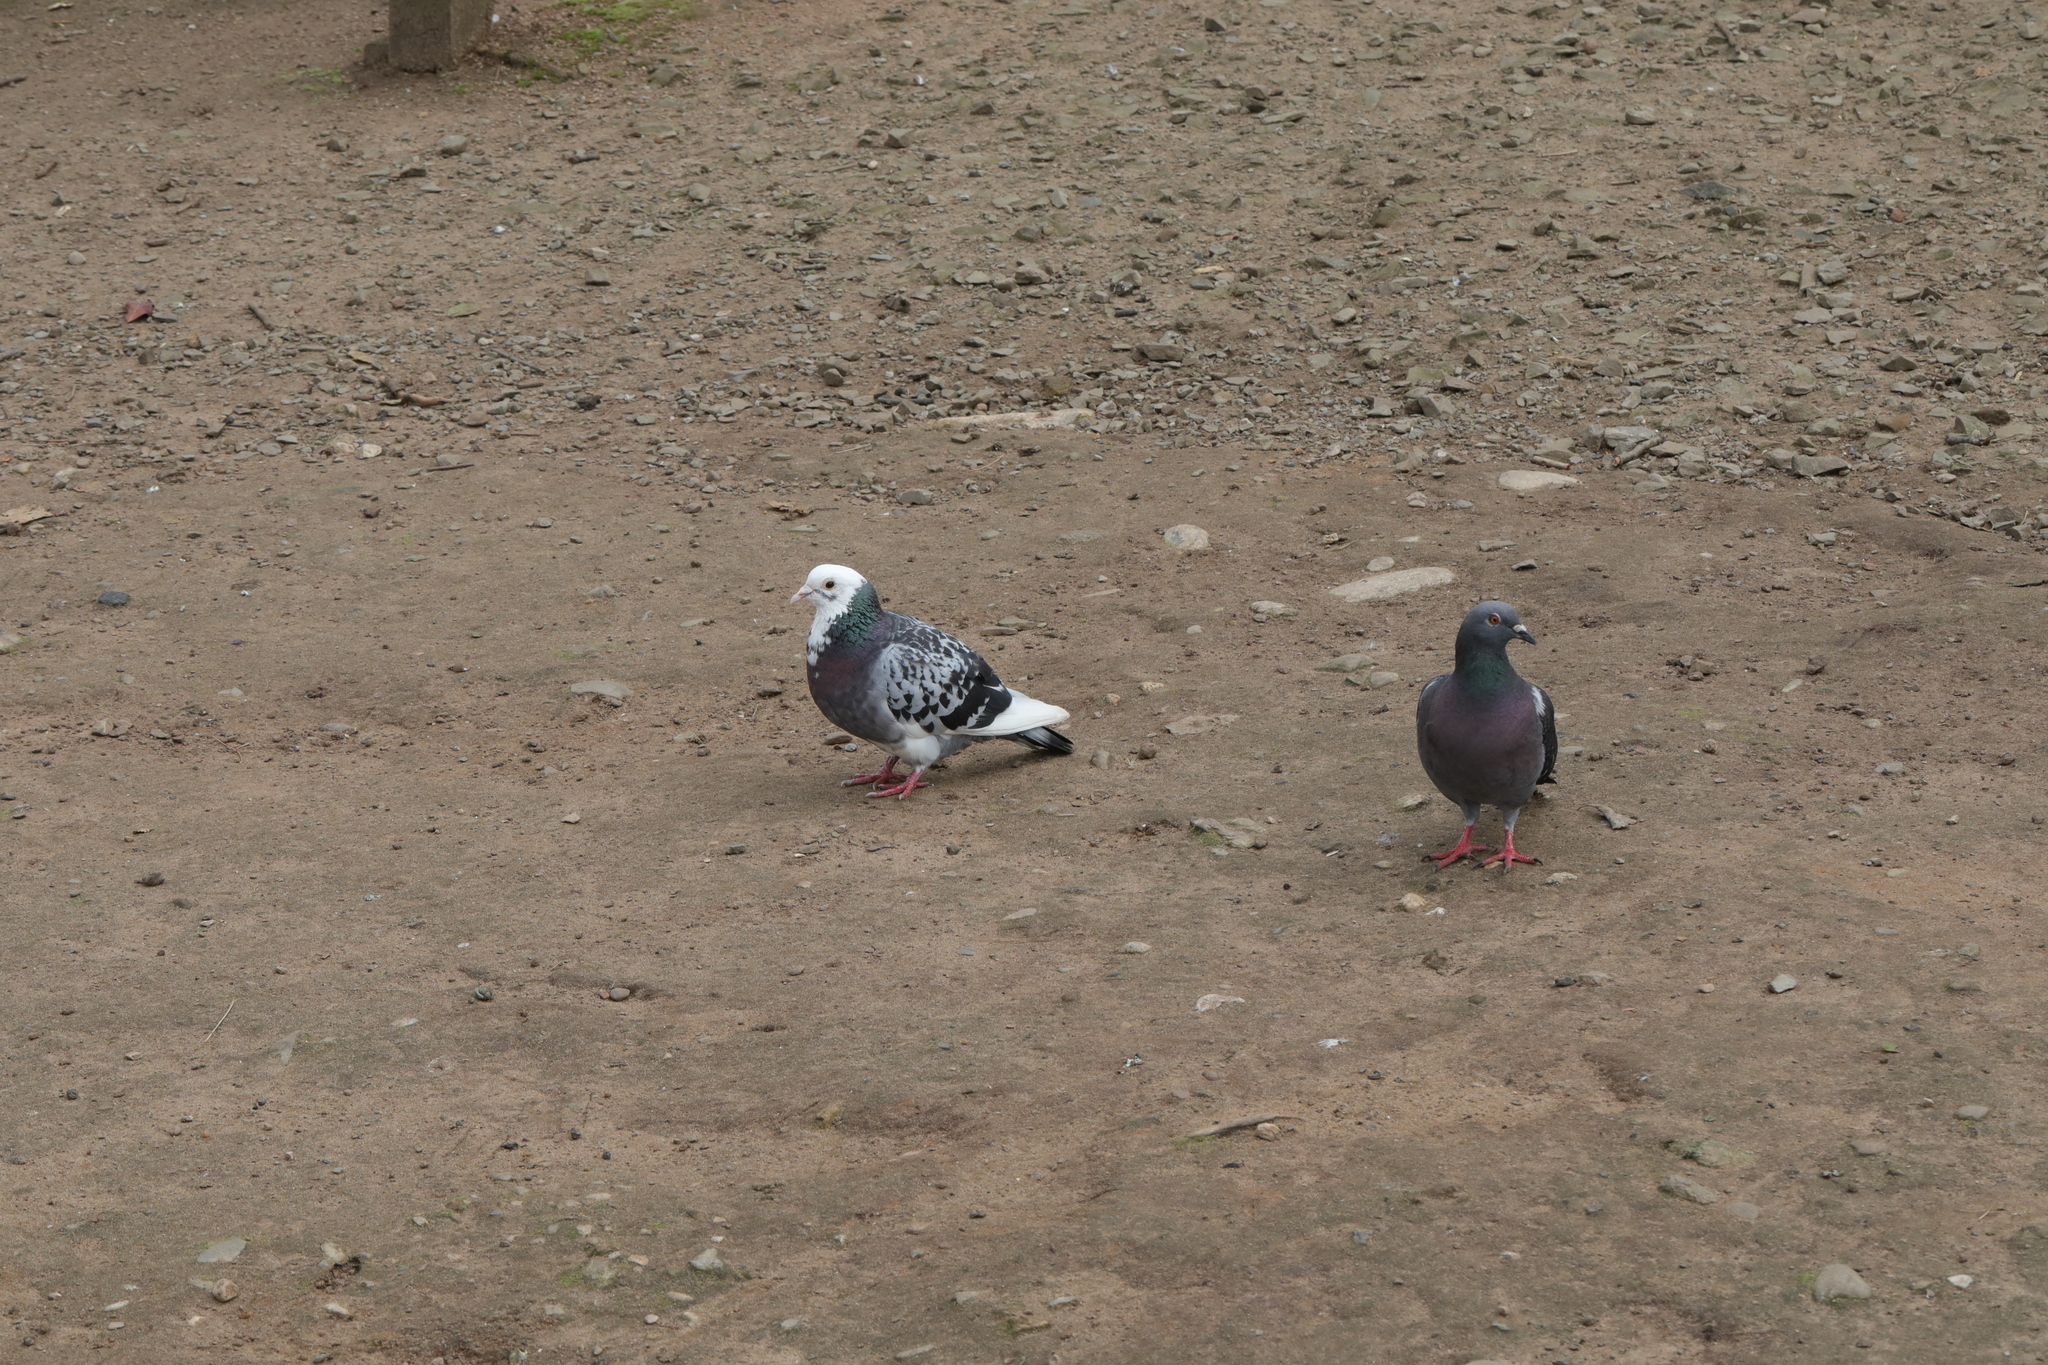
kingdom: Animalia
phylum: Chordata
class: Aves
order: Columbiformes
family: Columbidae
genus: Columba
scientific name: Columba livia
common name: Rock pigeon
